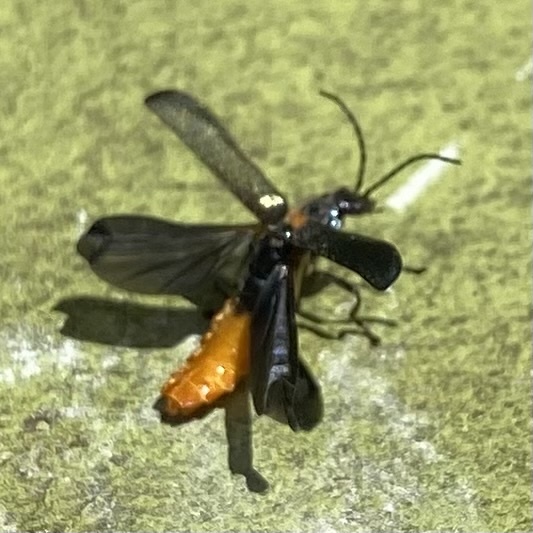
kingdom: Animalia
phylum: Arthropoda
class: Insecta
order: Coleoptera
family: Cantharidae
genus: Chauliognathus
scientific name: Chauliognathus
